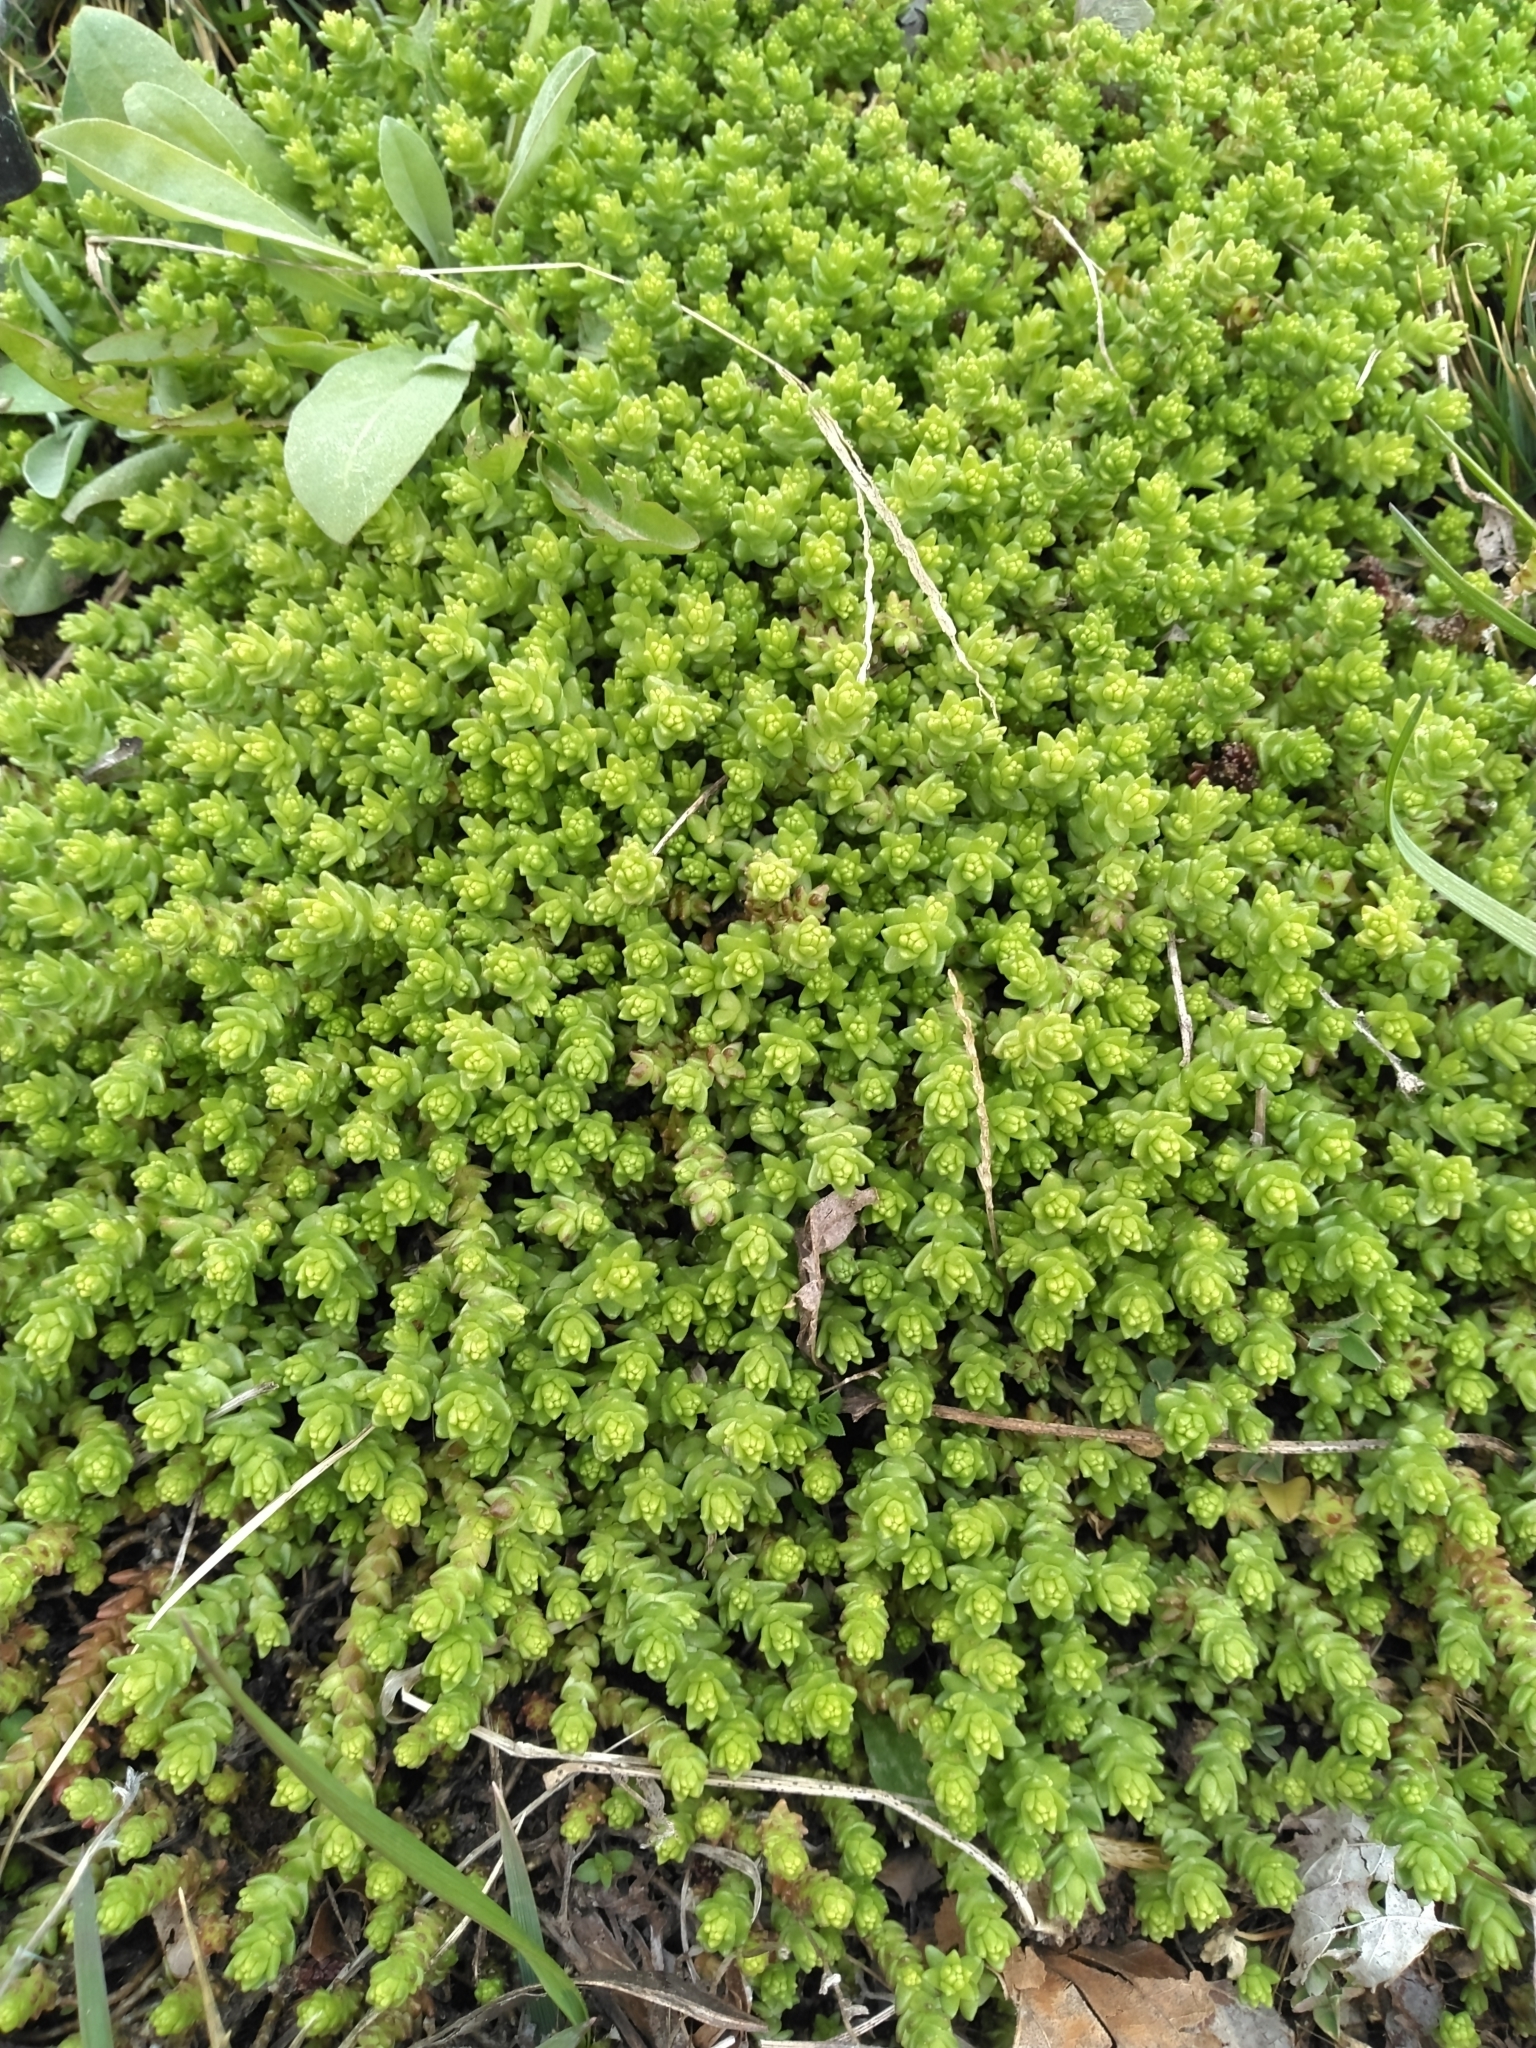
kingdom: Plantae
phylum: Tracheophyta
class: Magnoliopsida
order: Saxifragales
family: Crassulaceae
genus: Sedum
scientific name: Sedum acre
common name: Biting stonecrop
